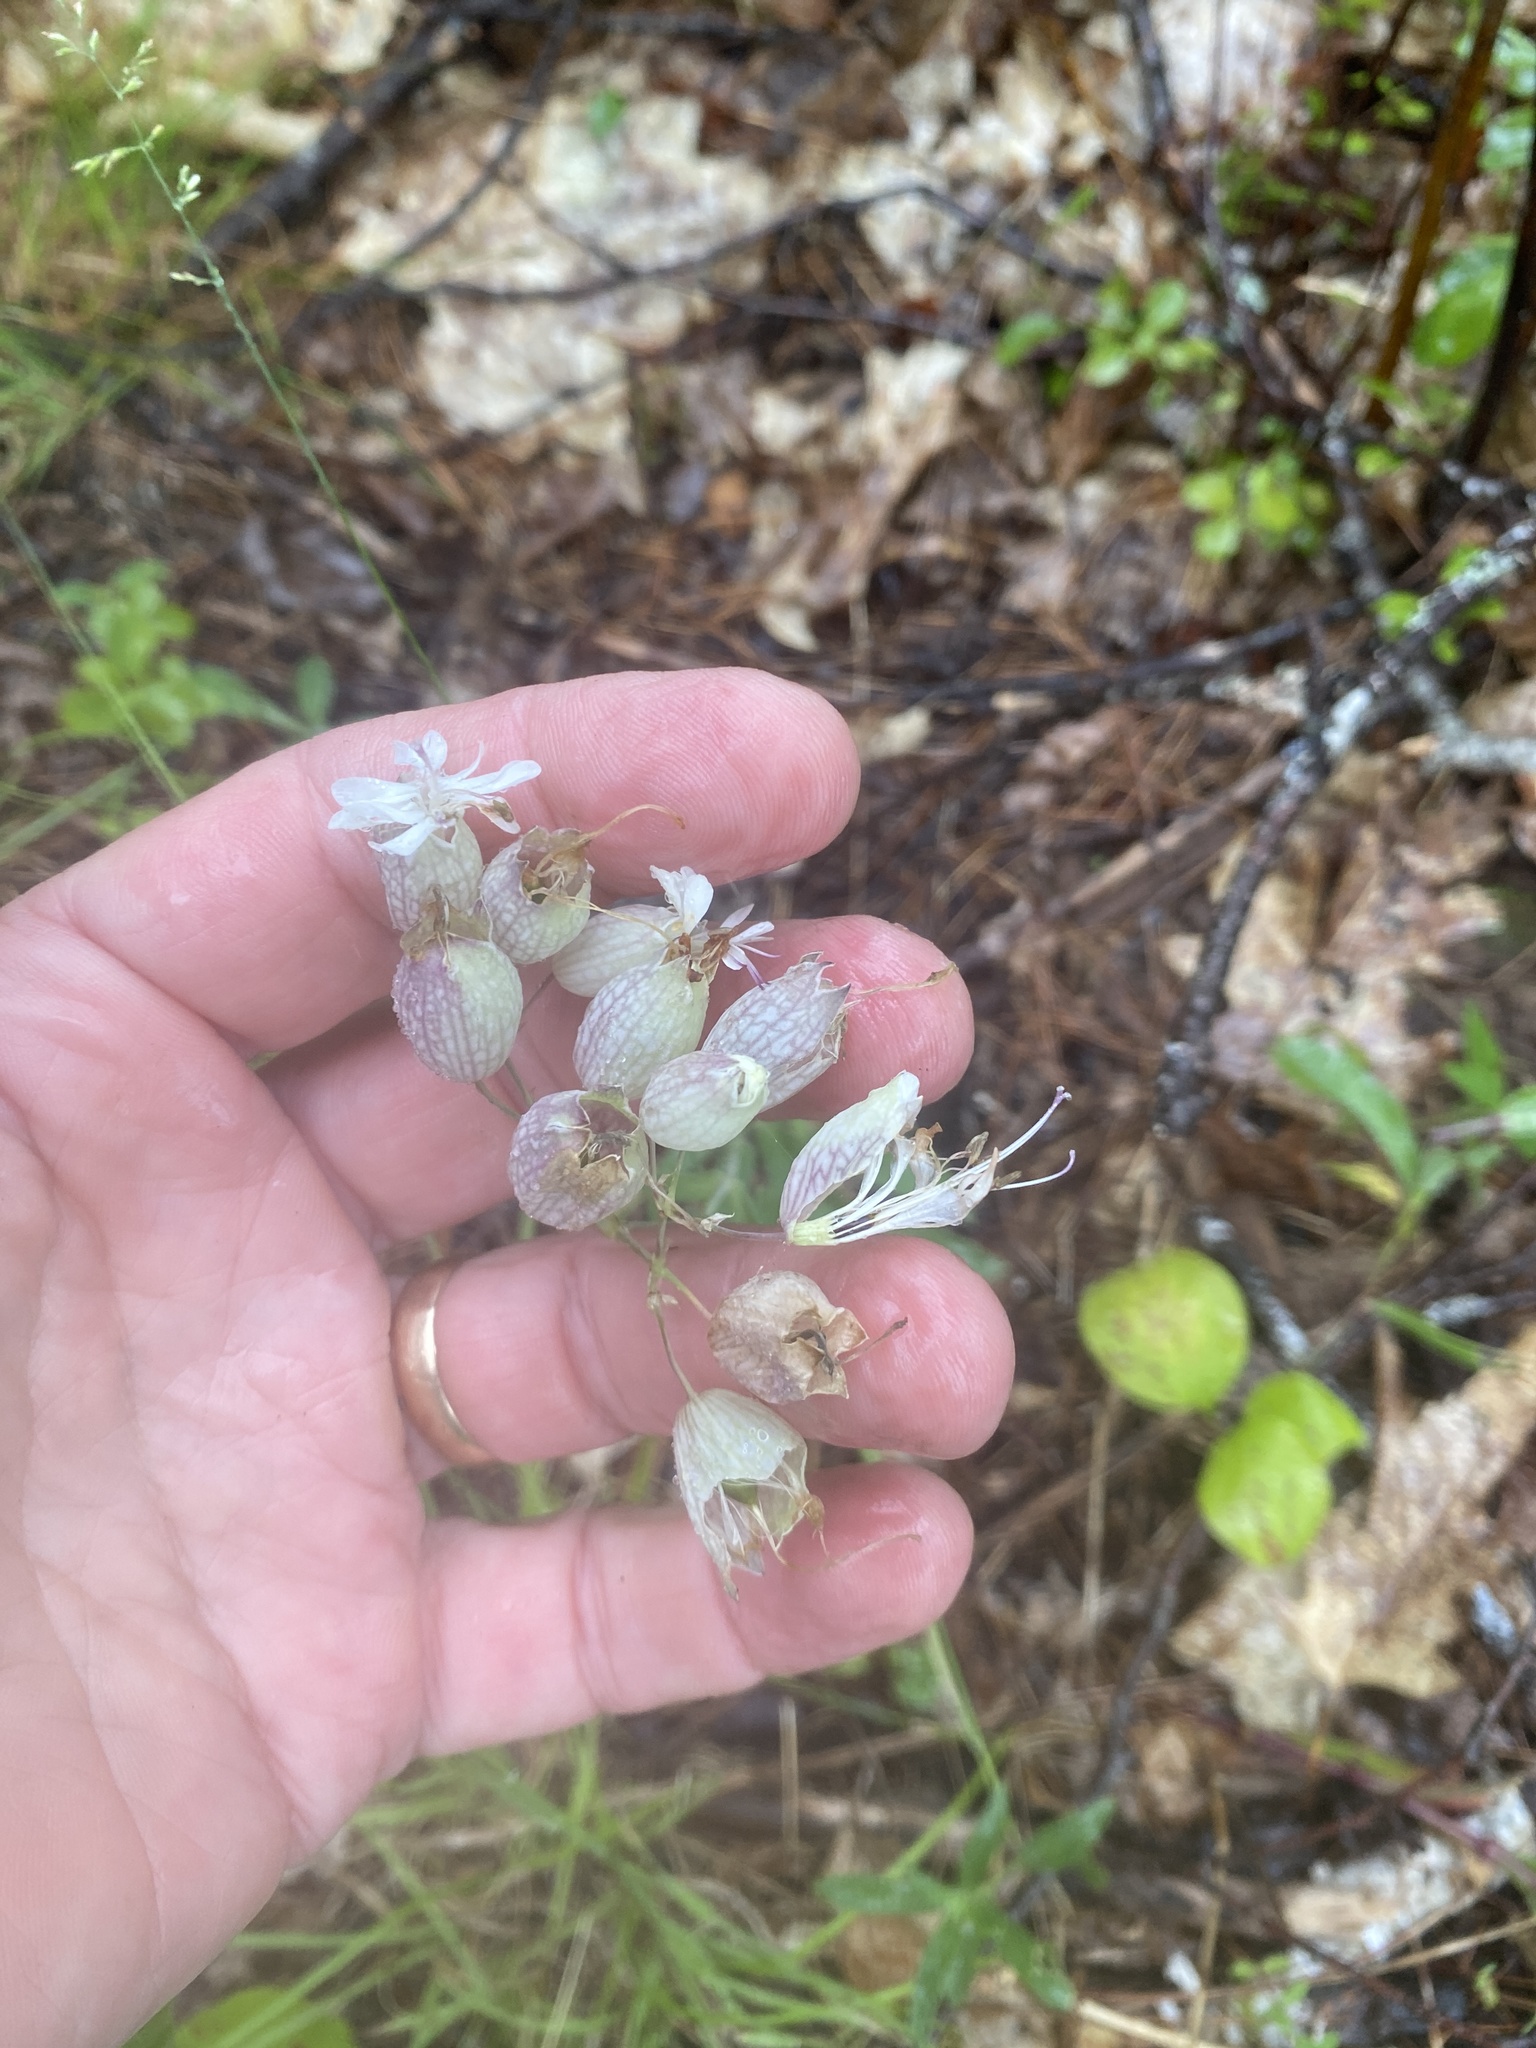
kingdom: Plantae
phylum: Tracheophyta
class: Magnoliopsida
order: Caryophyllales
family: Caryophyllaceae
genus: Silene
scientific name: Silene vulgaris
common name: Bladder campion
